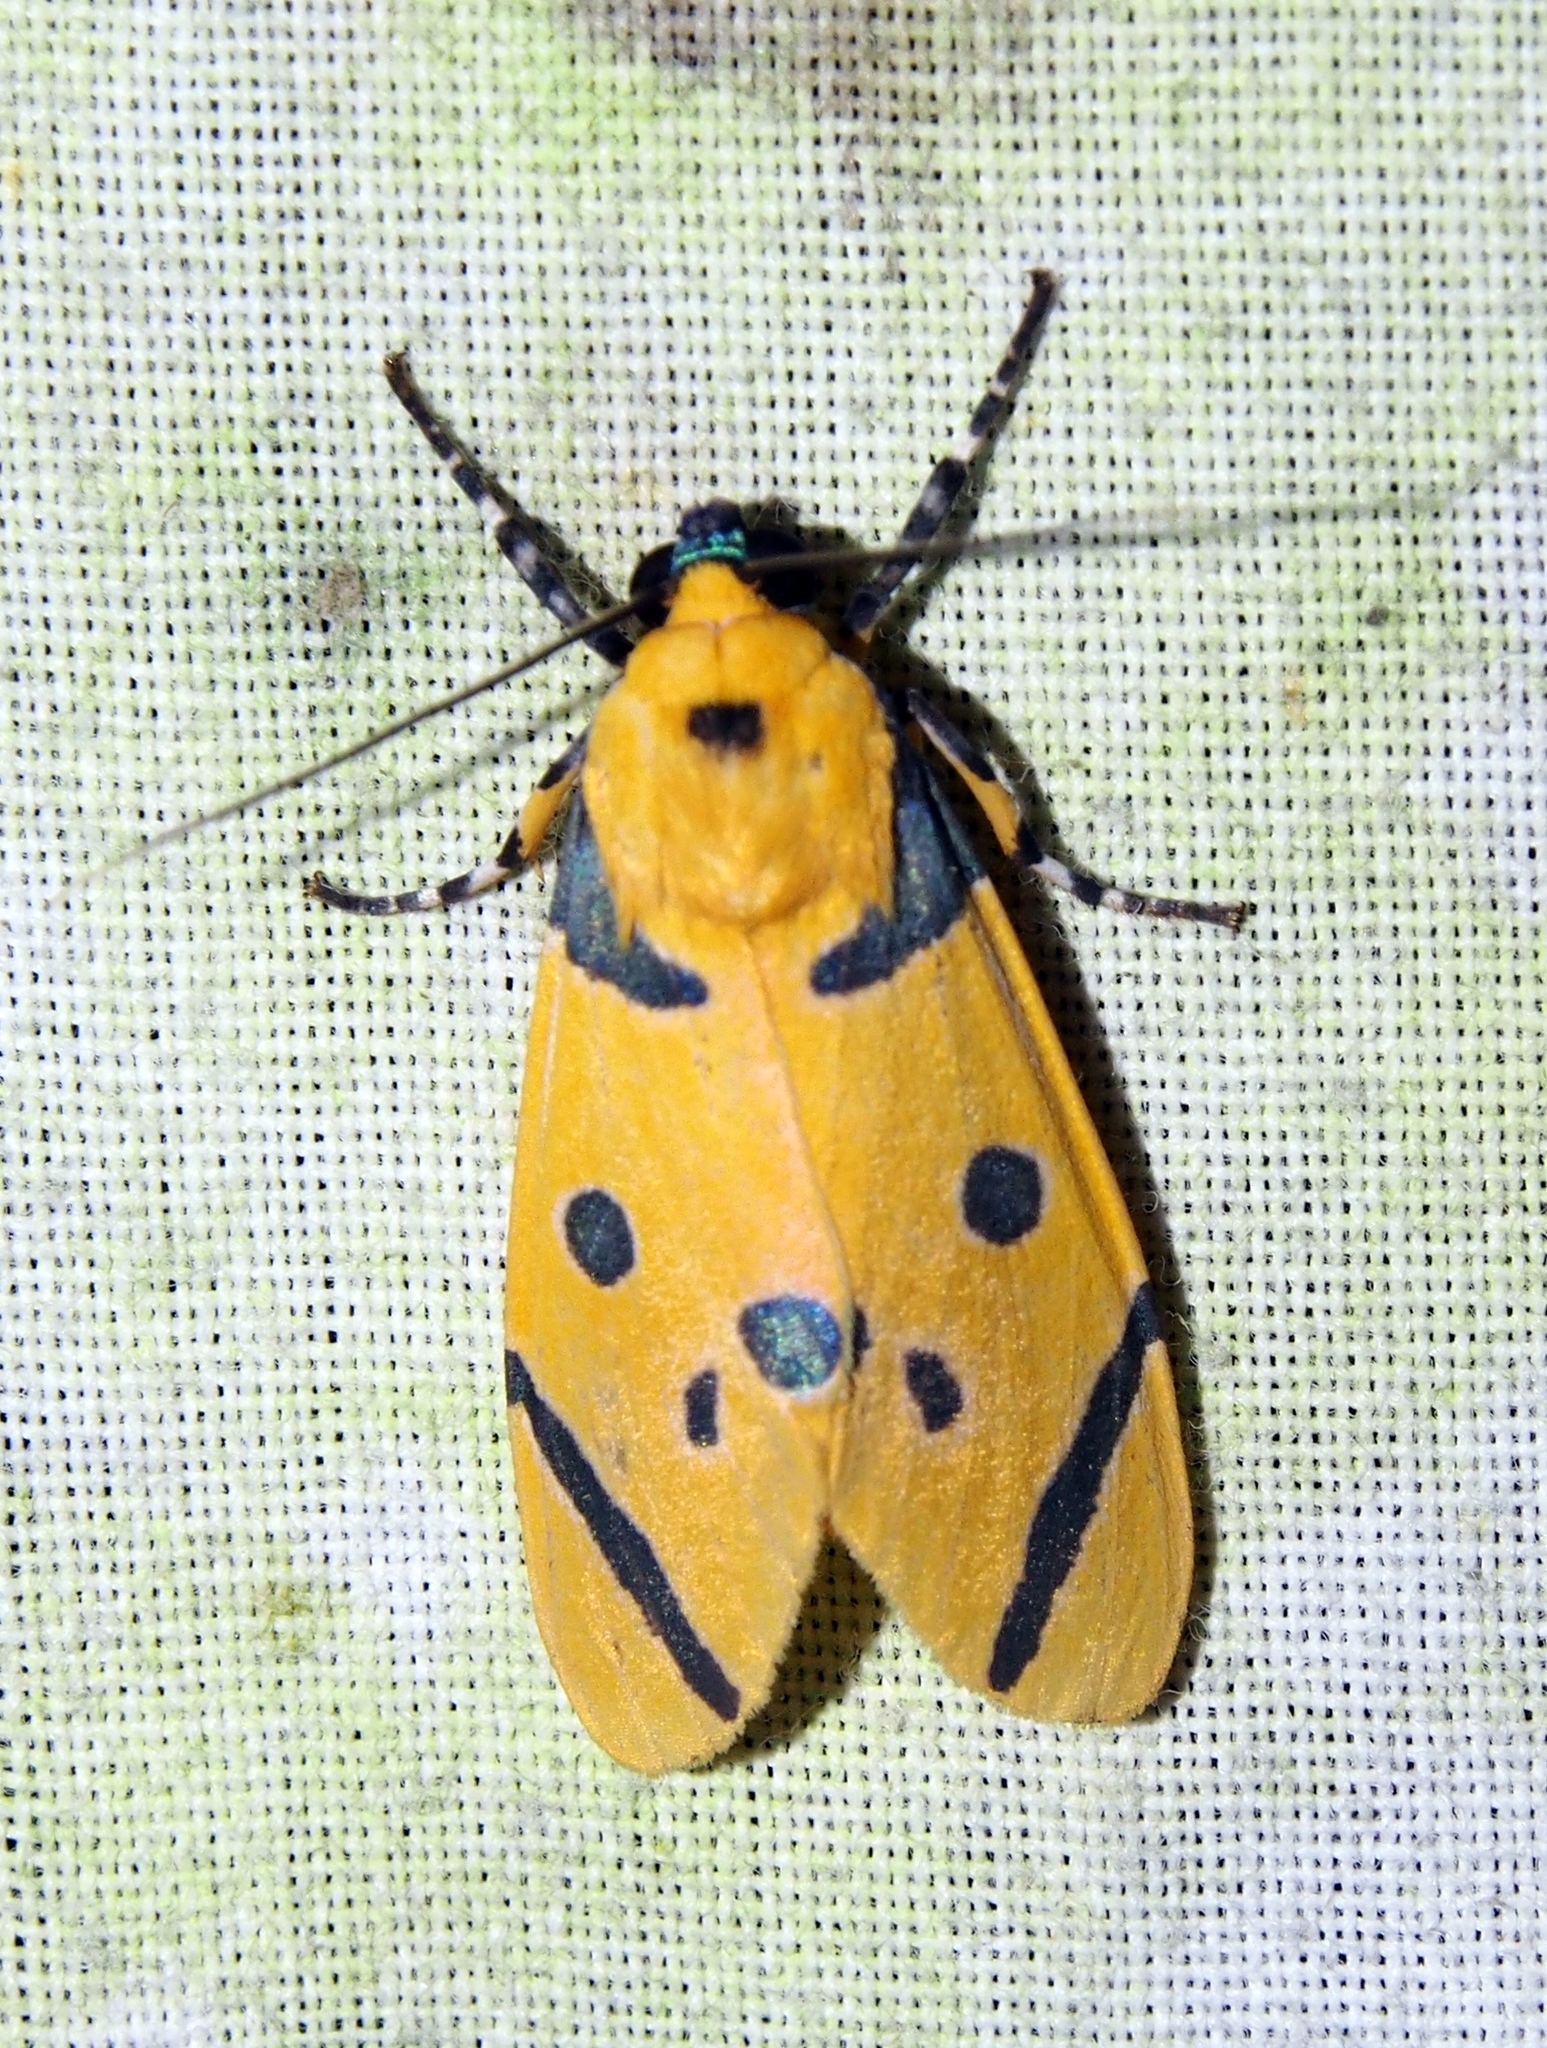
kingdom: Animalia
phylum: Arthropoda
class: Insecta
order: Lepidoptera
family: Erebidae
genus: Emurena
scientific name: Emurena tripunctata
